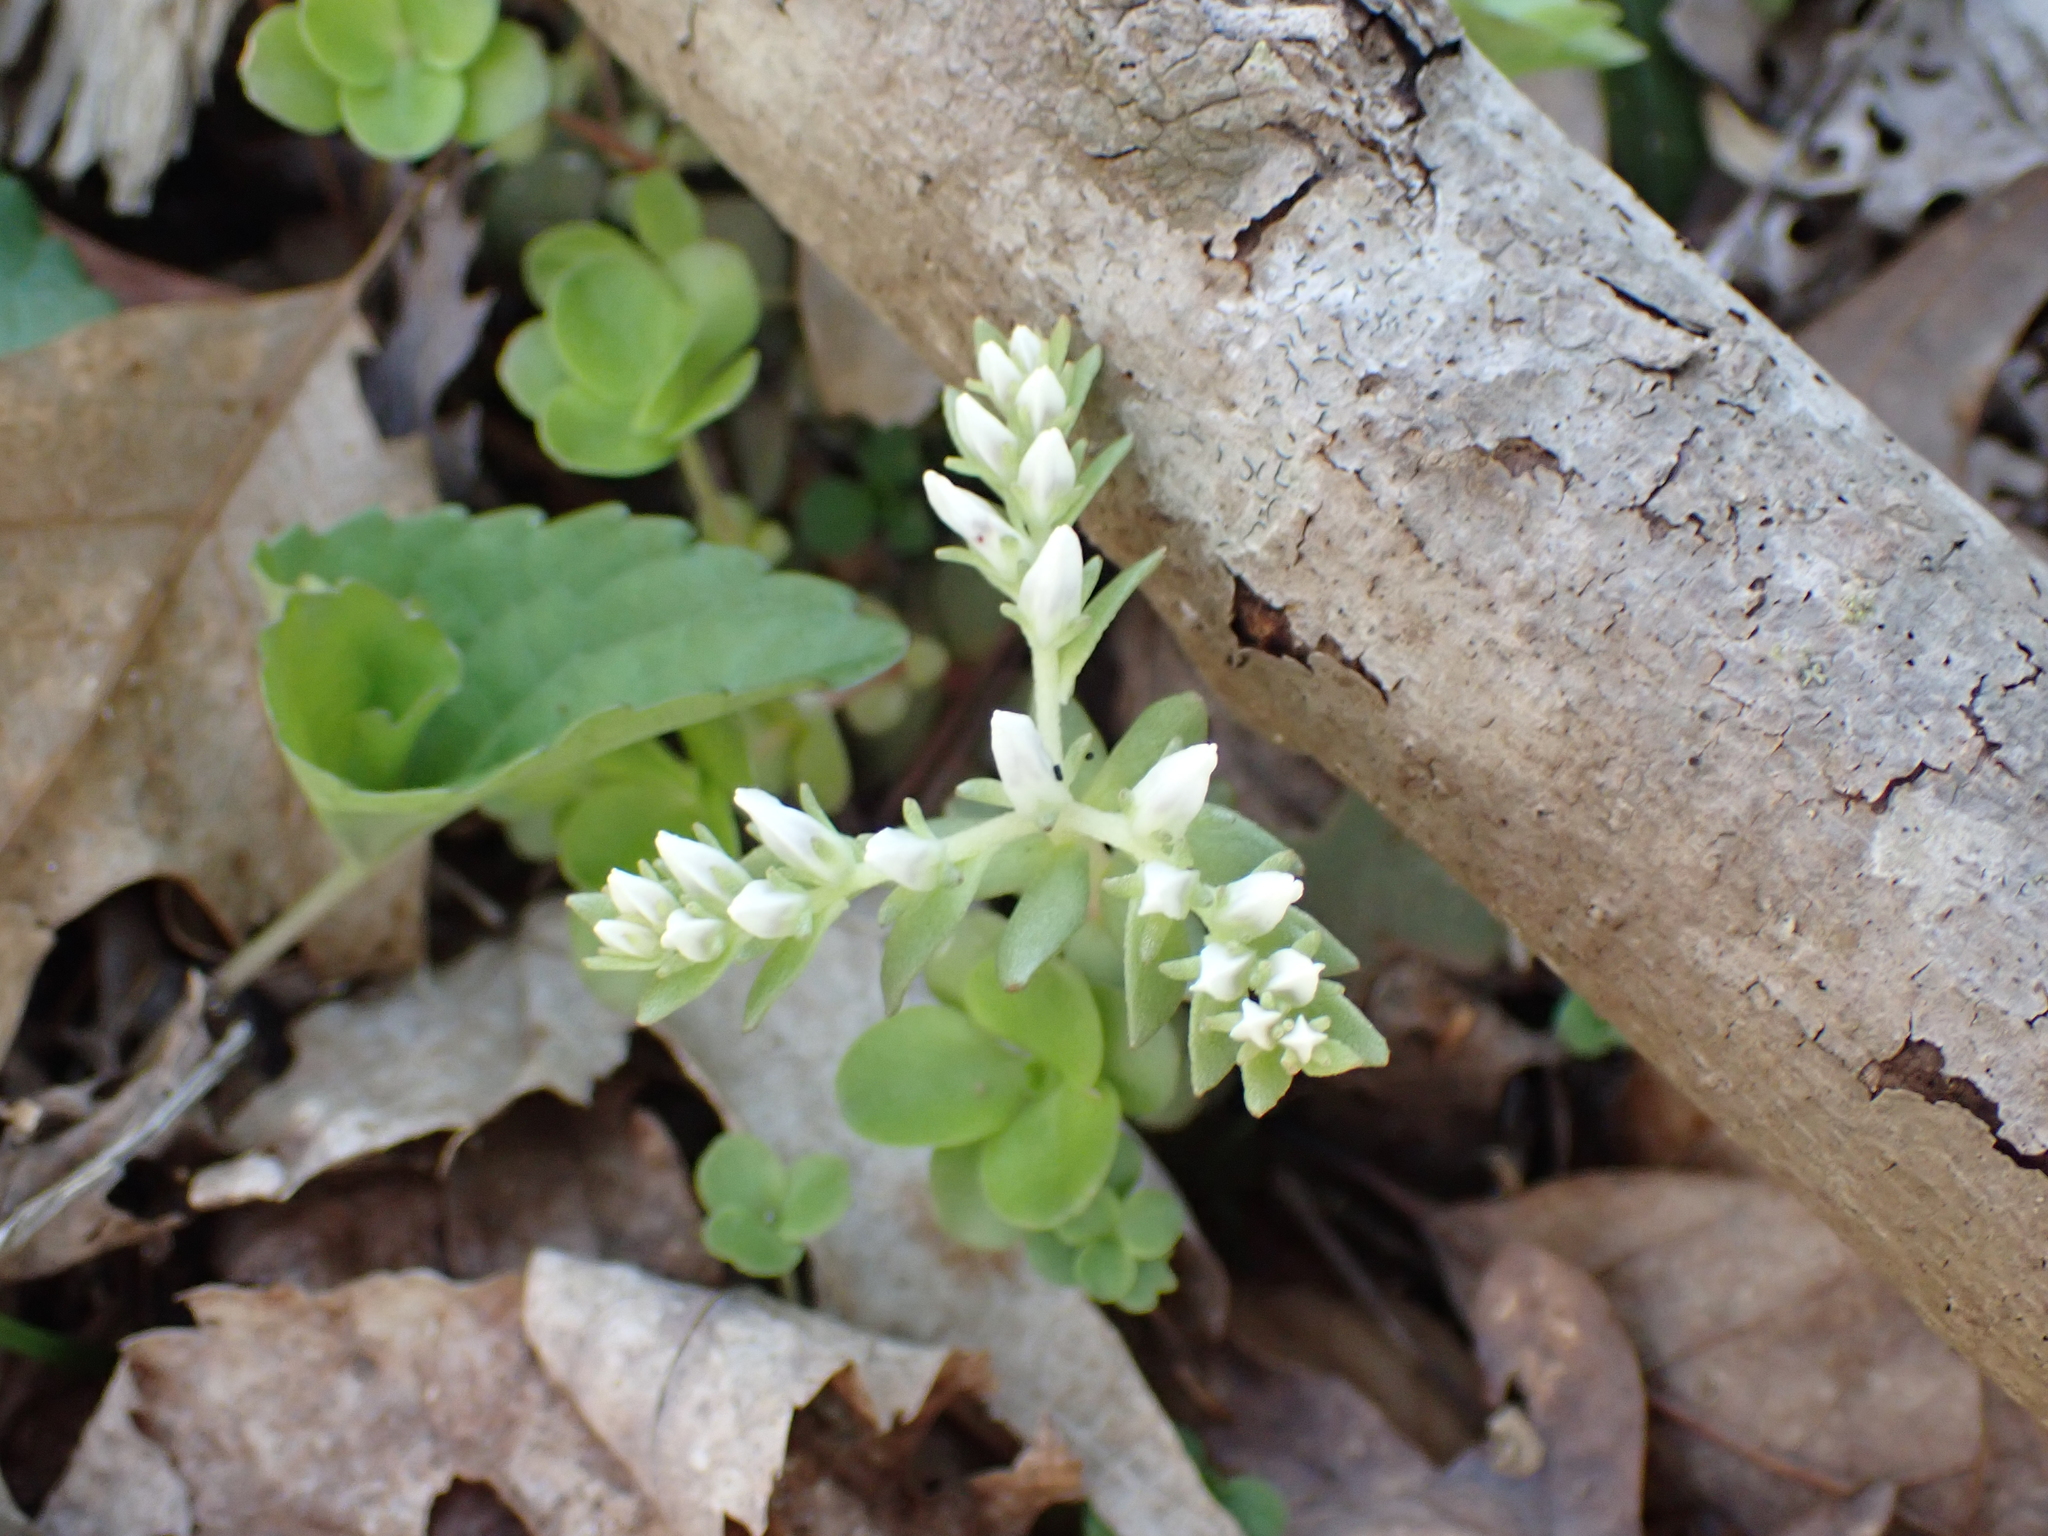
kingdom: Plantae
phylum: Tracheophyta
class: Magnoliopsida
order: Saxifragales
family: Crassulaceae
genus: Sedum
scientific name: Sedum ternatum
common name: Wild stonecrop
